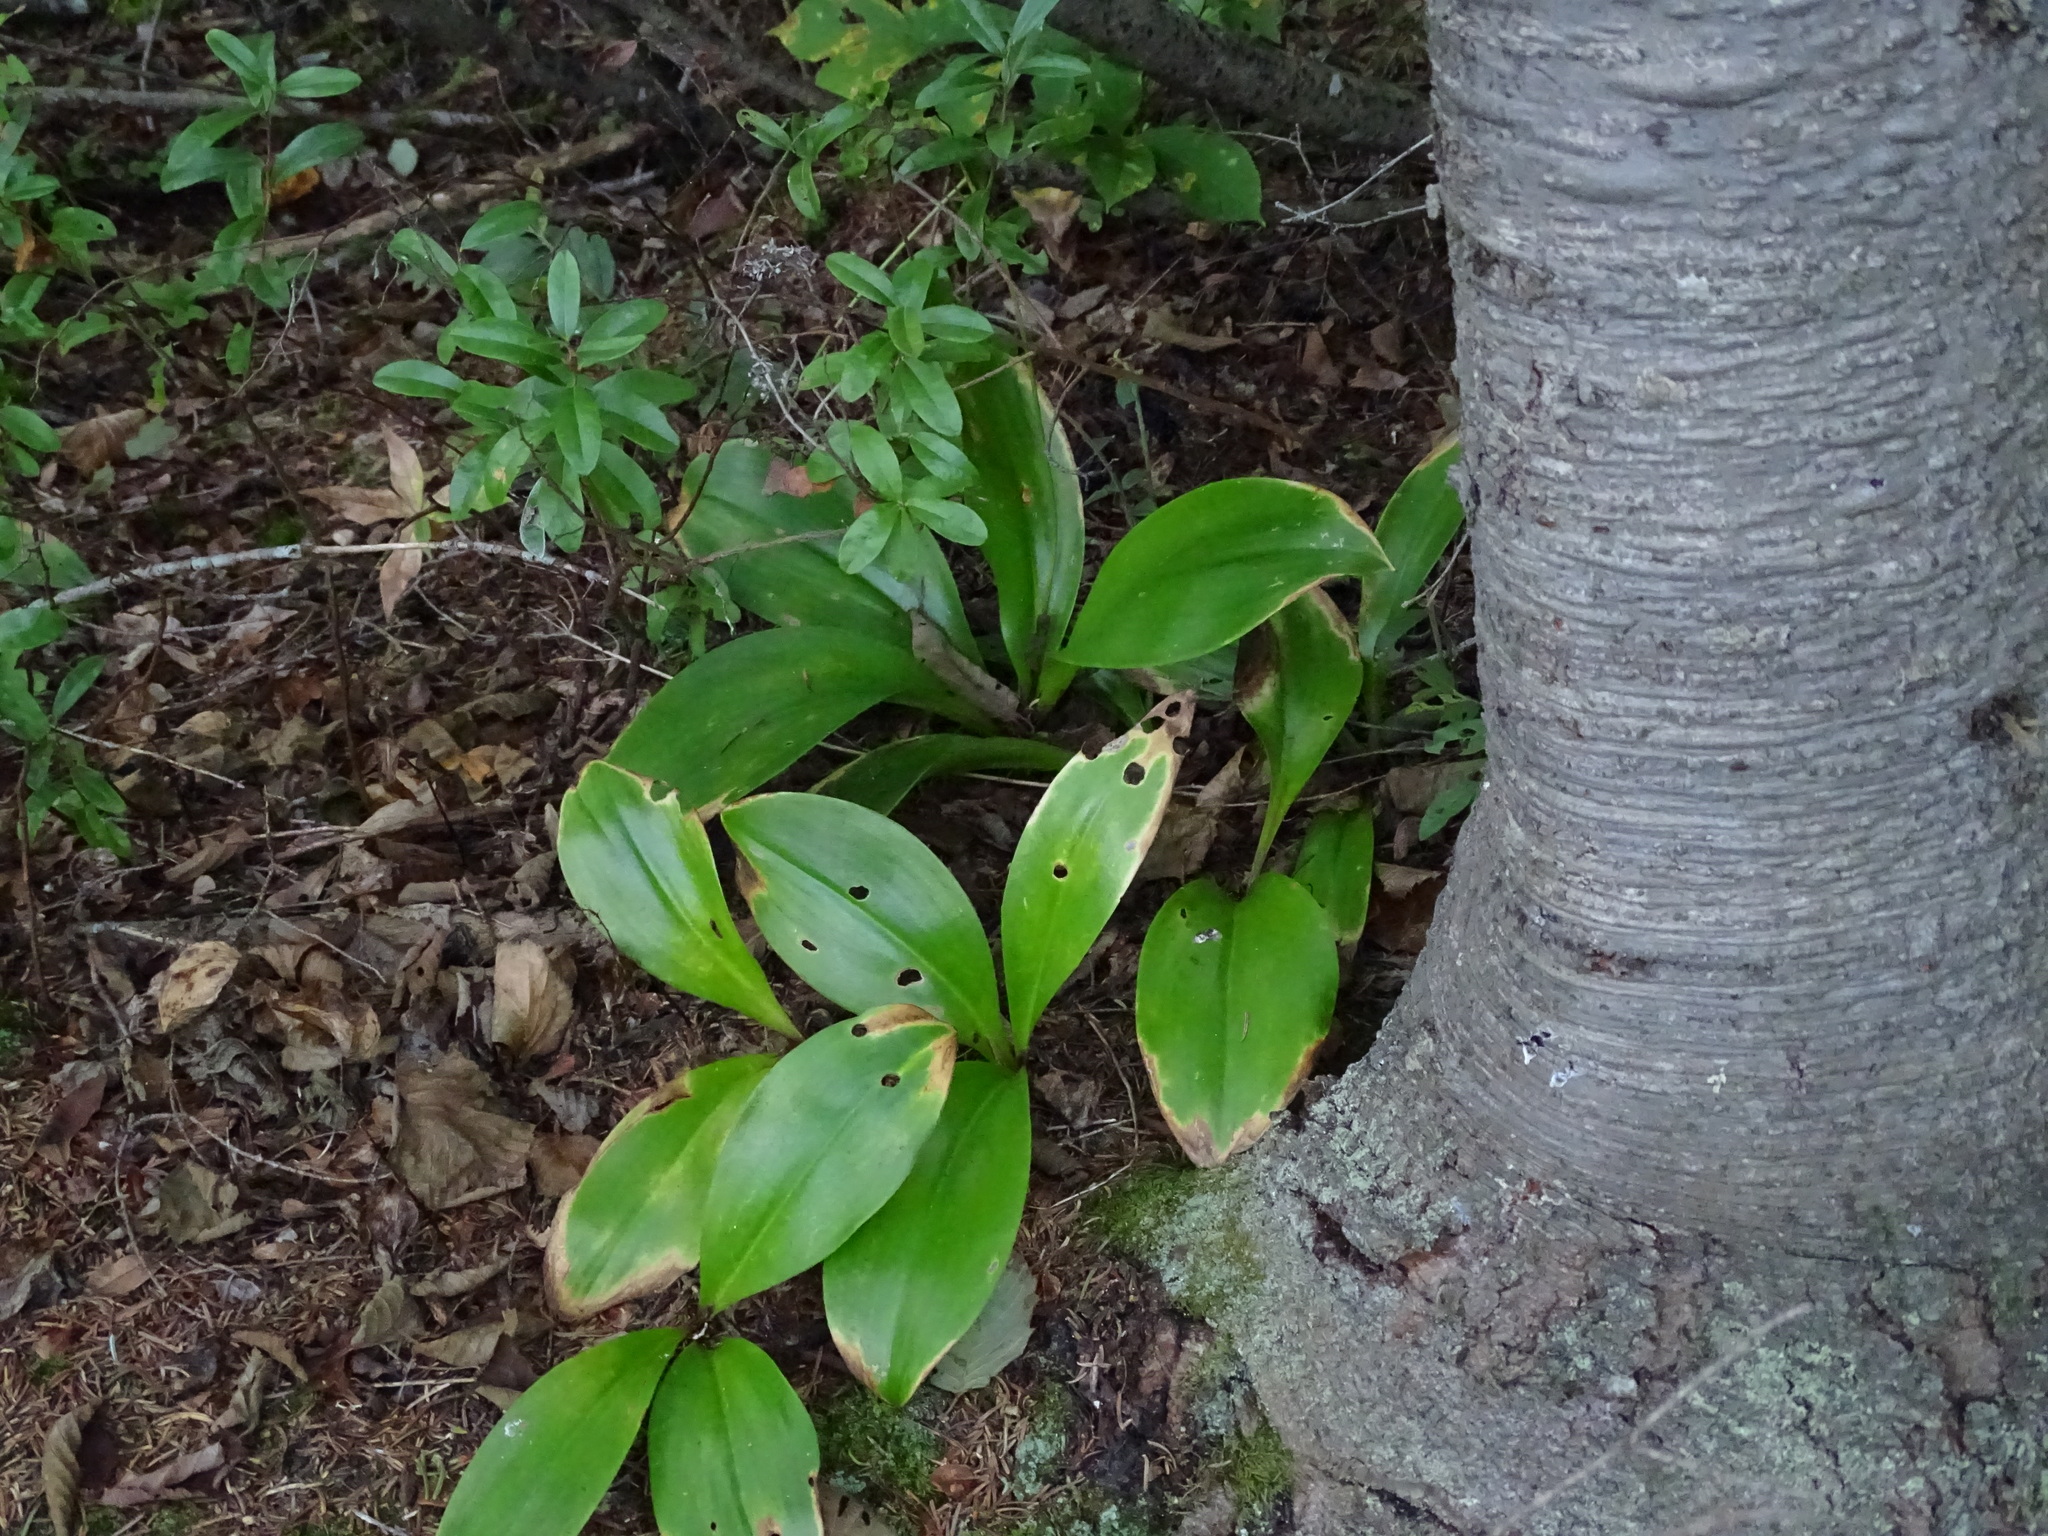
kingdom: Plantae
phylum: Tracheophyta
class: Liliopsida
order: Liliales
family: Liliaceae
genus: Clintonia
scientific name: Clintonia borealis
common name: Yellow clintonia
